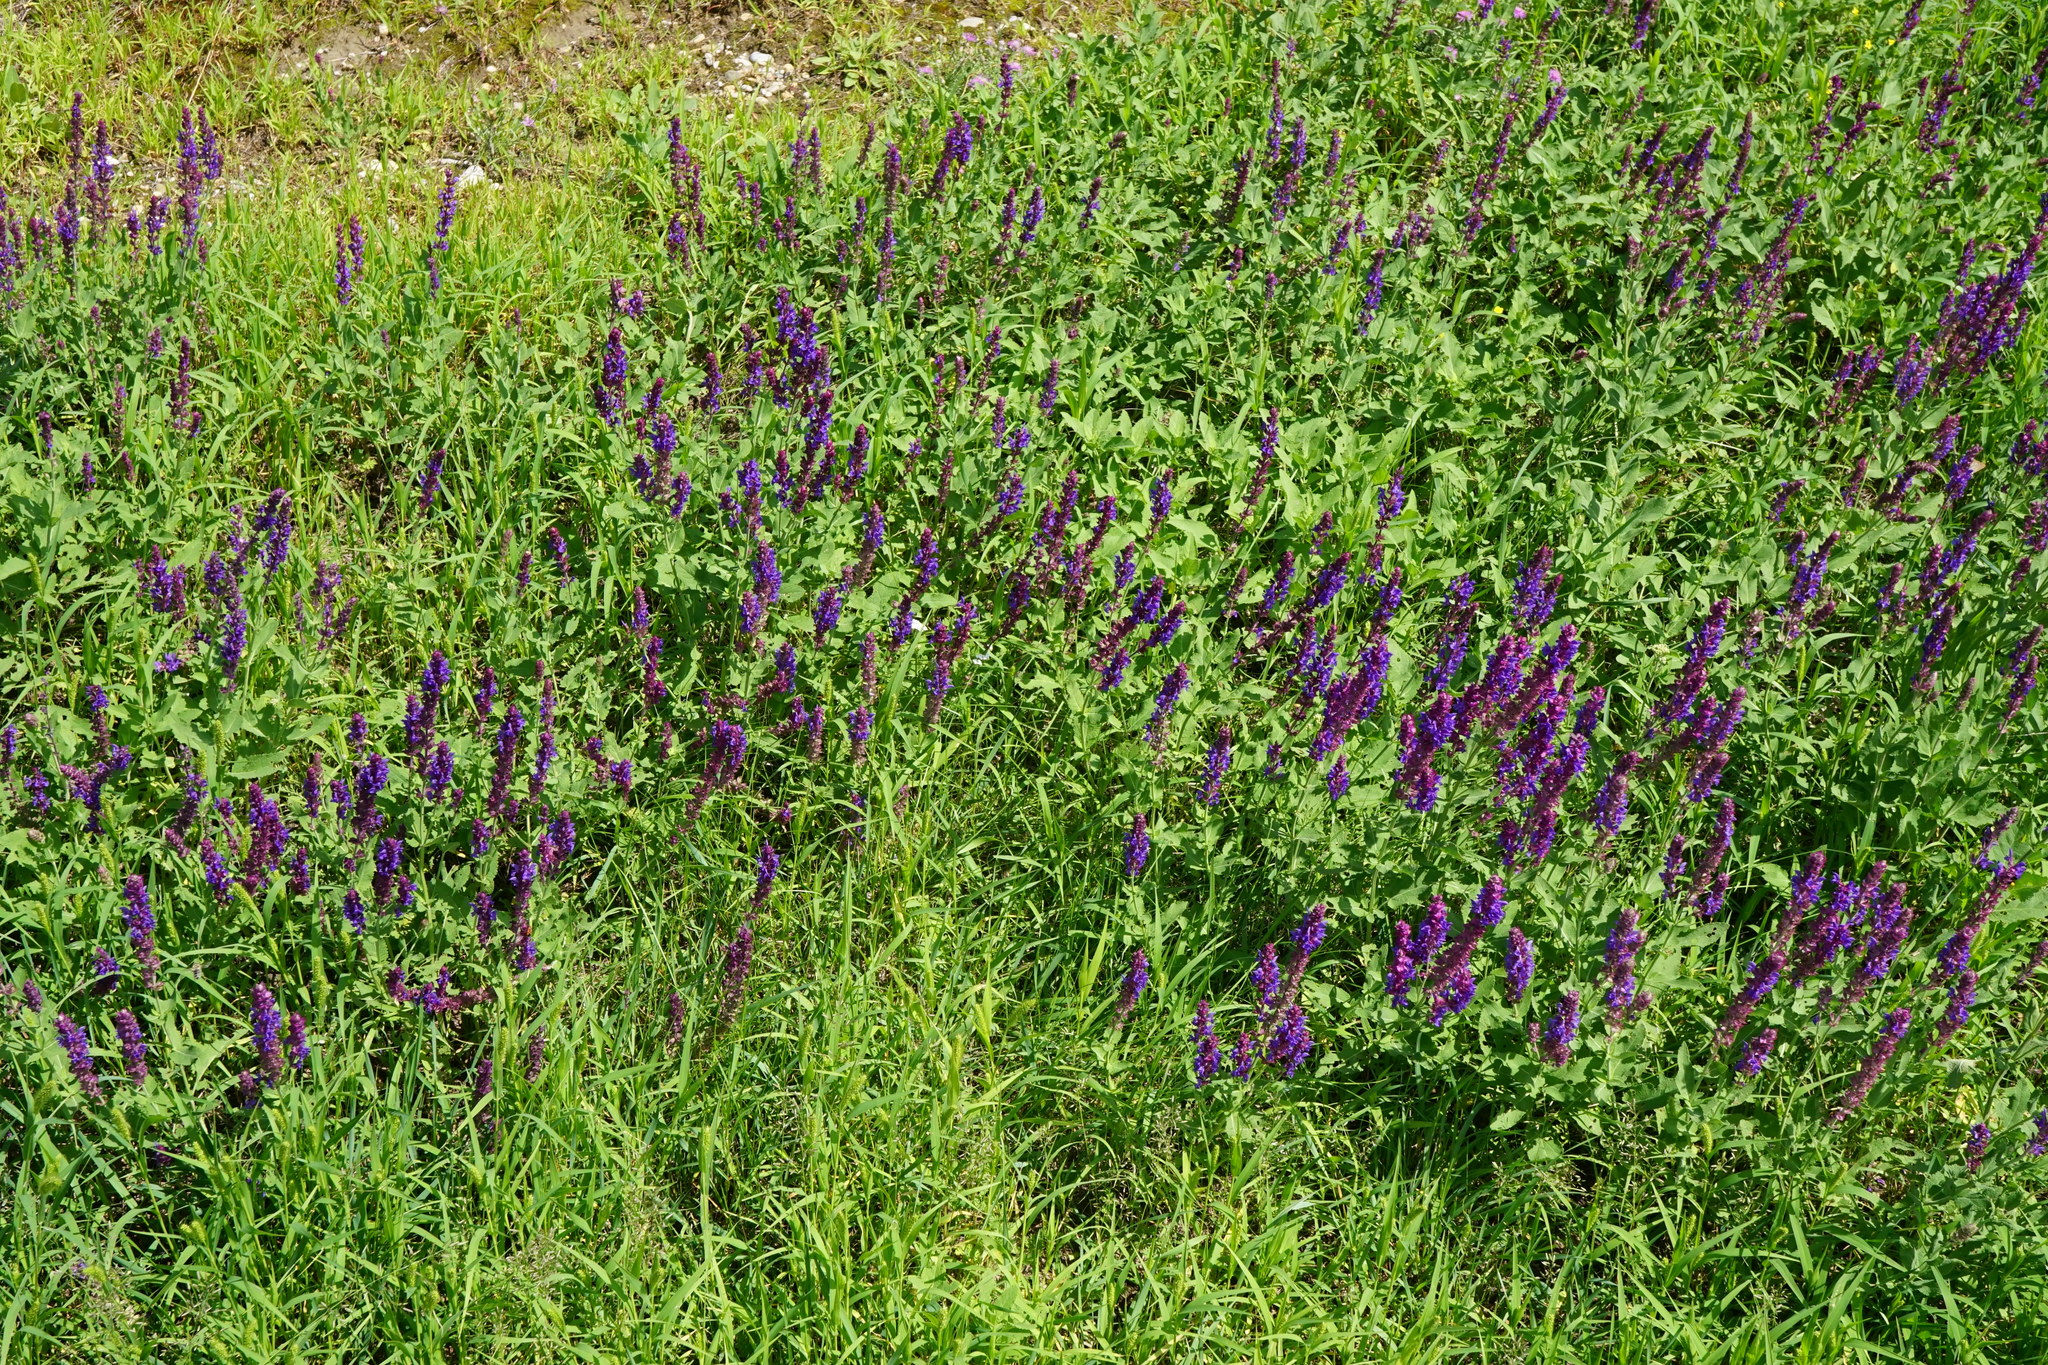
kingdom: Plantae
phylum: Tracheophyta
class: Magnoliopsida
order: Lamiales
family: Lamiaceae
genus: Salvia
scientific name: Salvia nemorosa
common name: Balkan clary
